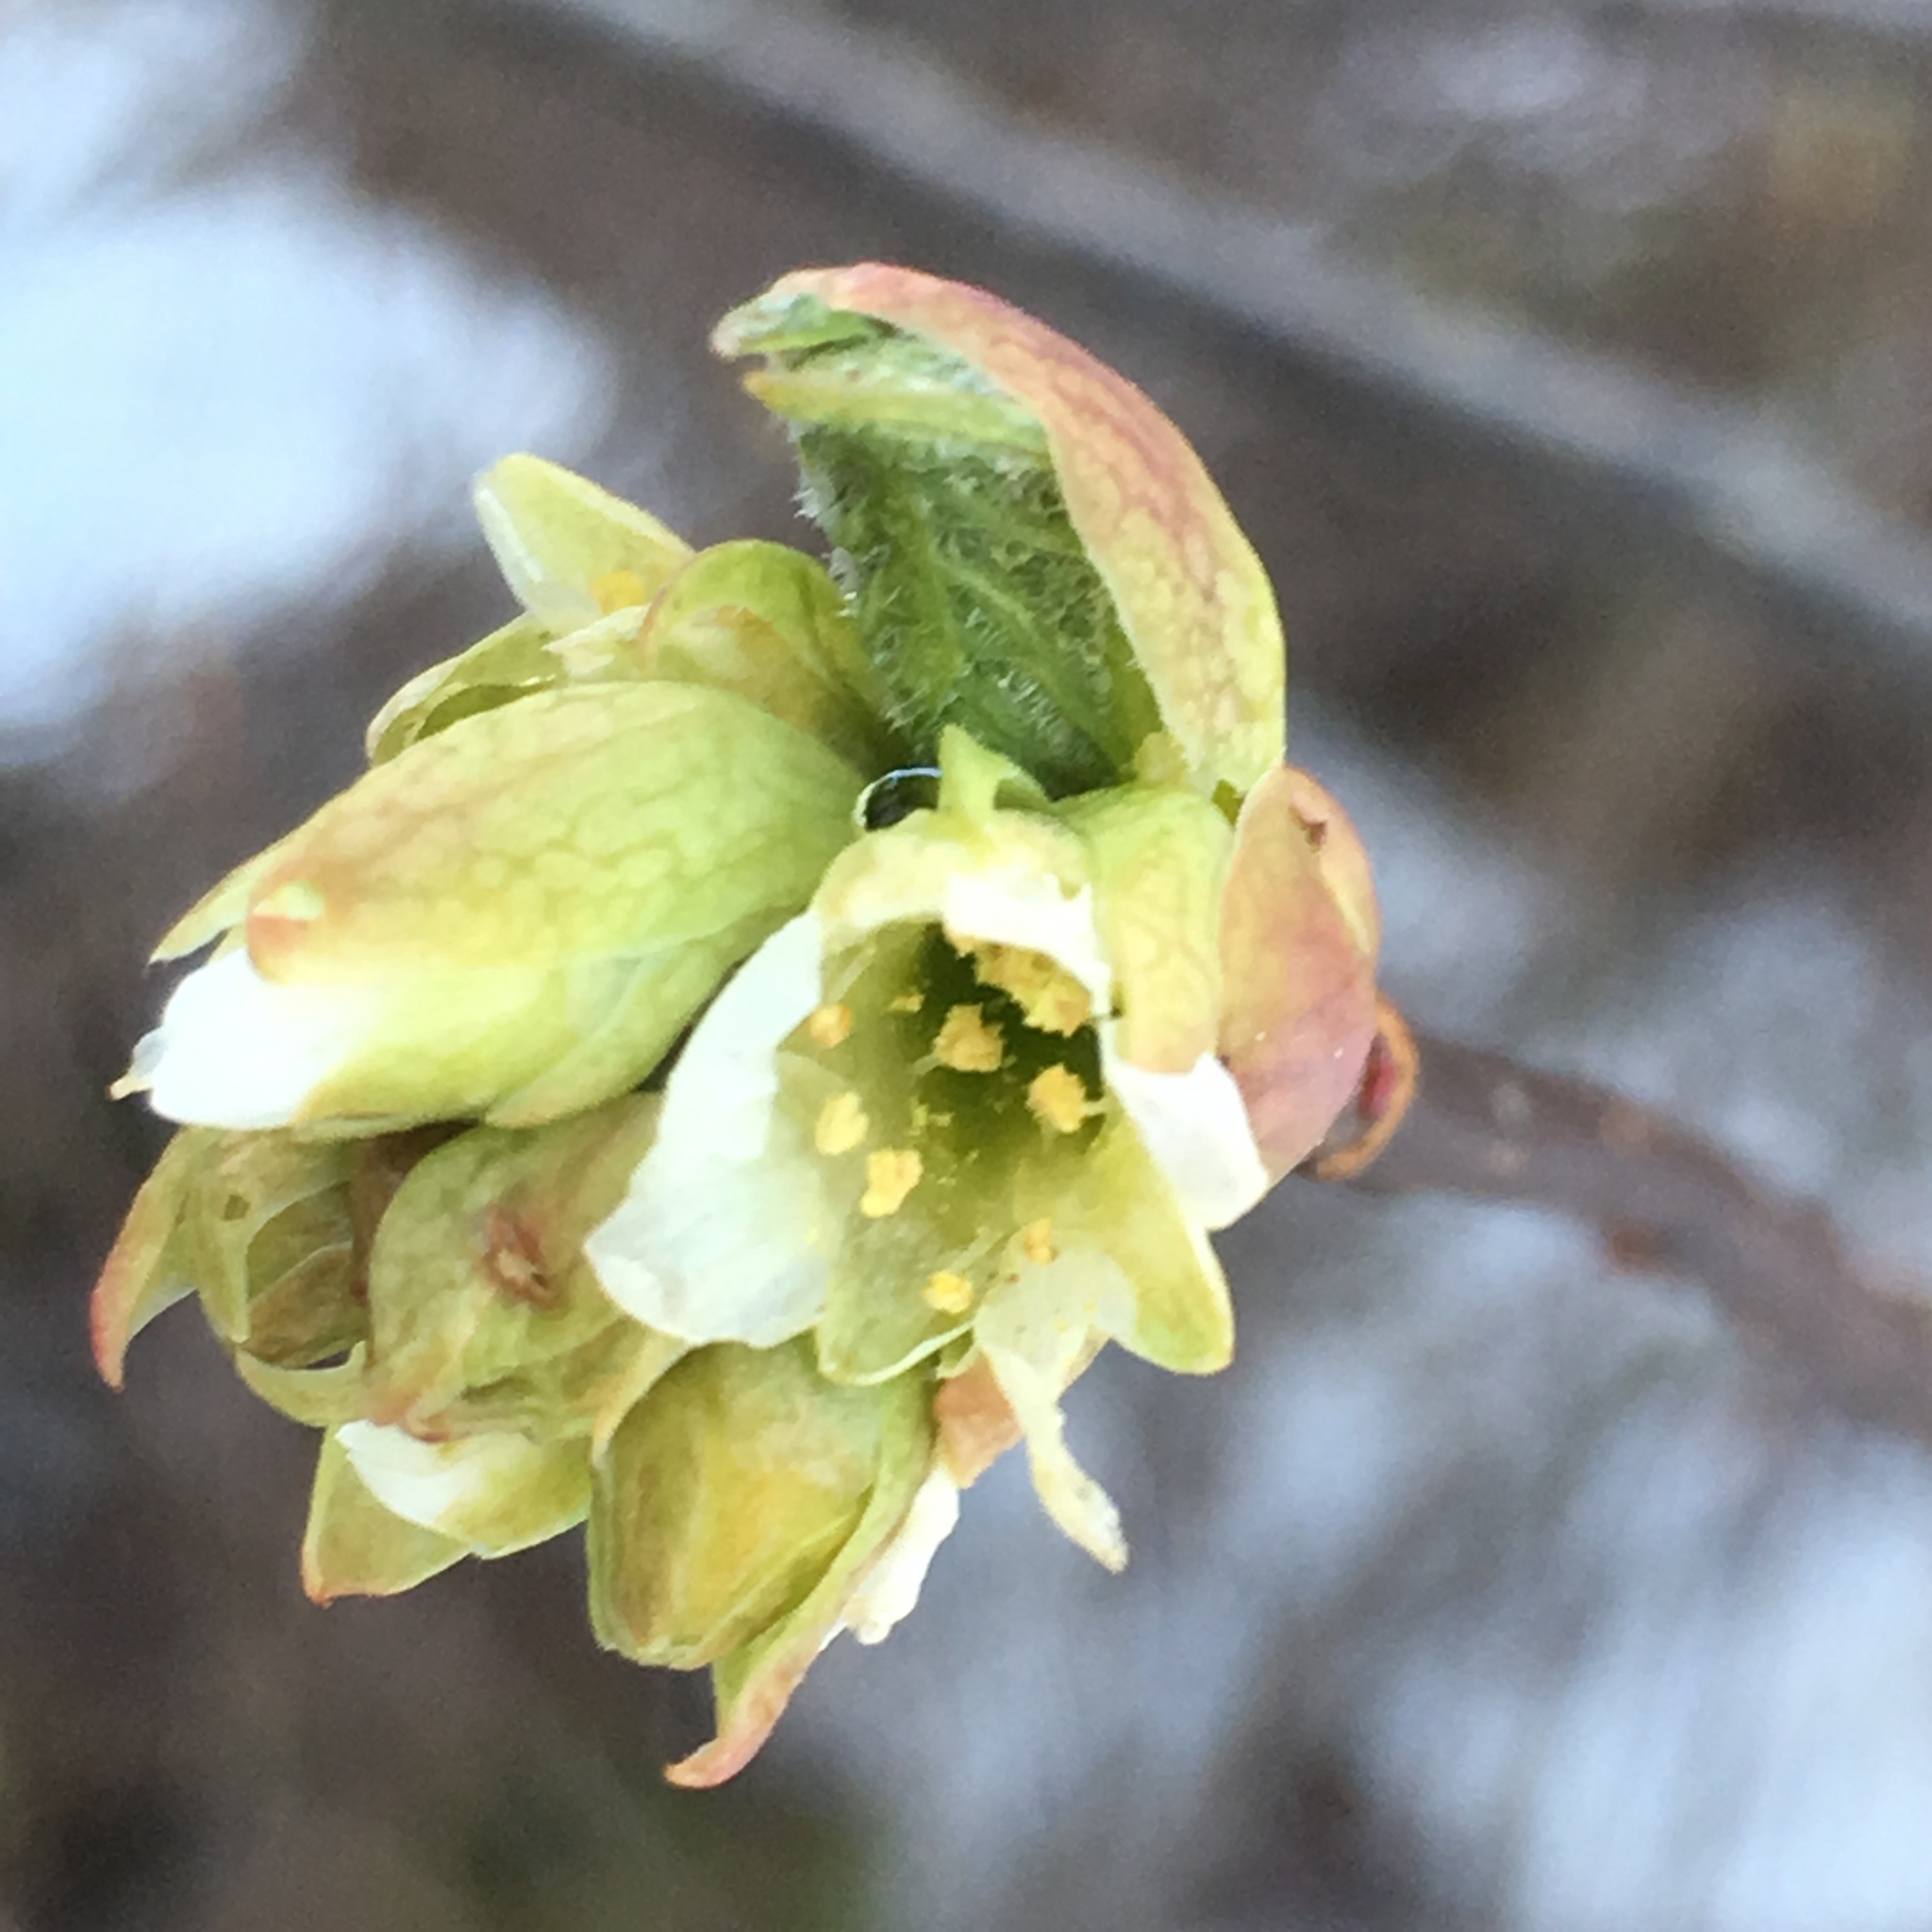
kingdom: Plantae
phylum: Tracheophyta
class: Magnoliopsida
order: Rosales
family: Rosaceae
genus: Oemleria
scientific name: Oemleria cerasiformis
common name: Osoberry
